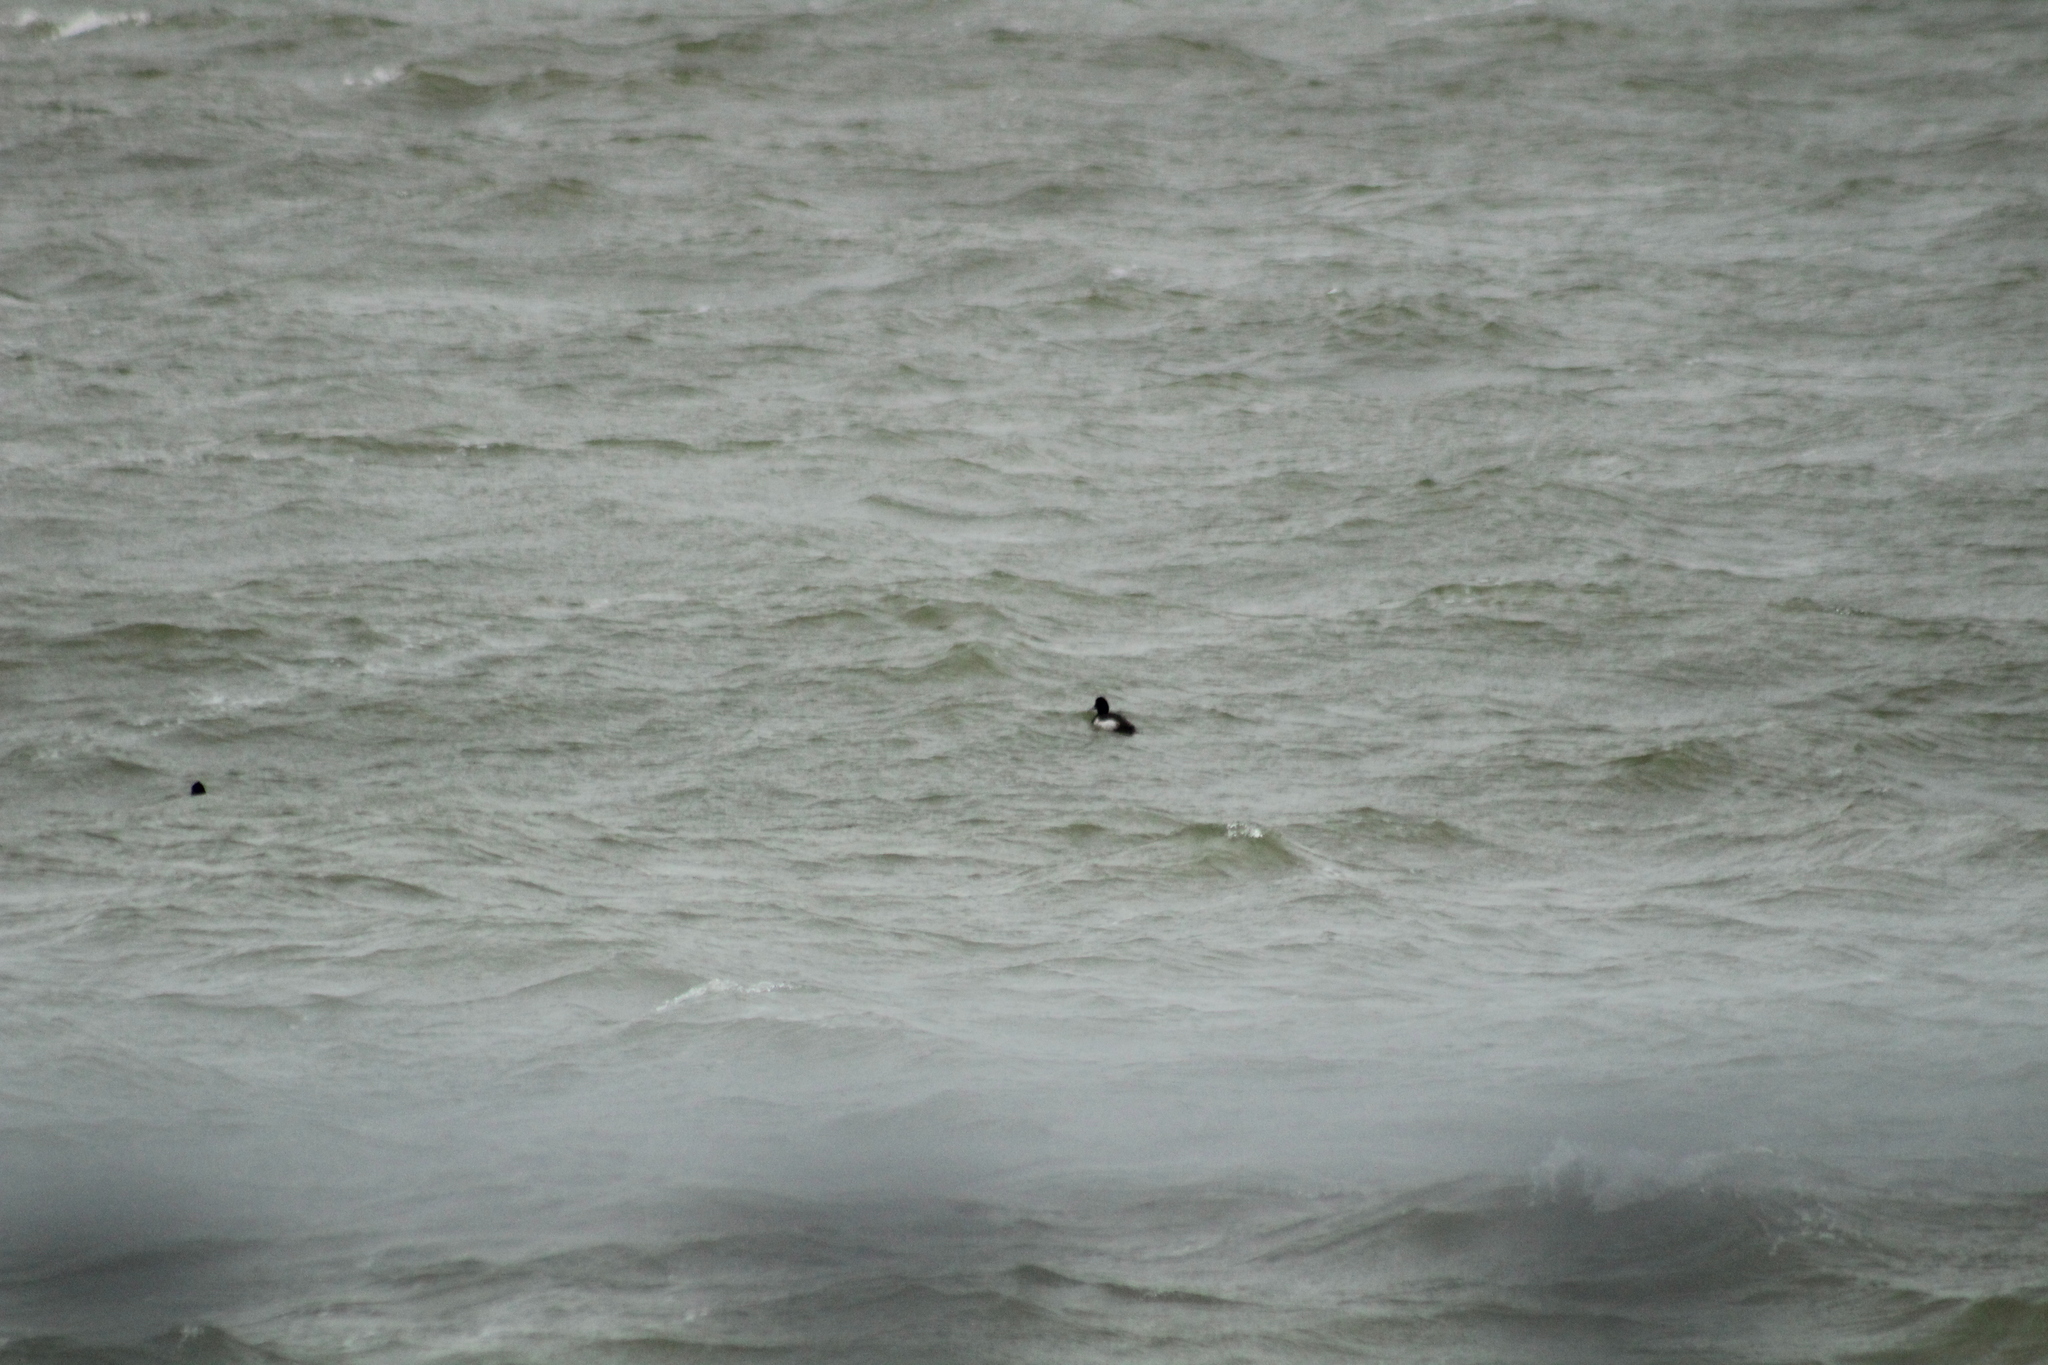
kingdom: Animalia
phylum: Chordata
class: Aves
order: Anseriformes
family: Anatidae
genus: Aythya
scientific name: Aythya fuligula
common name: Tufted duck
